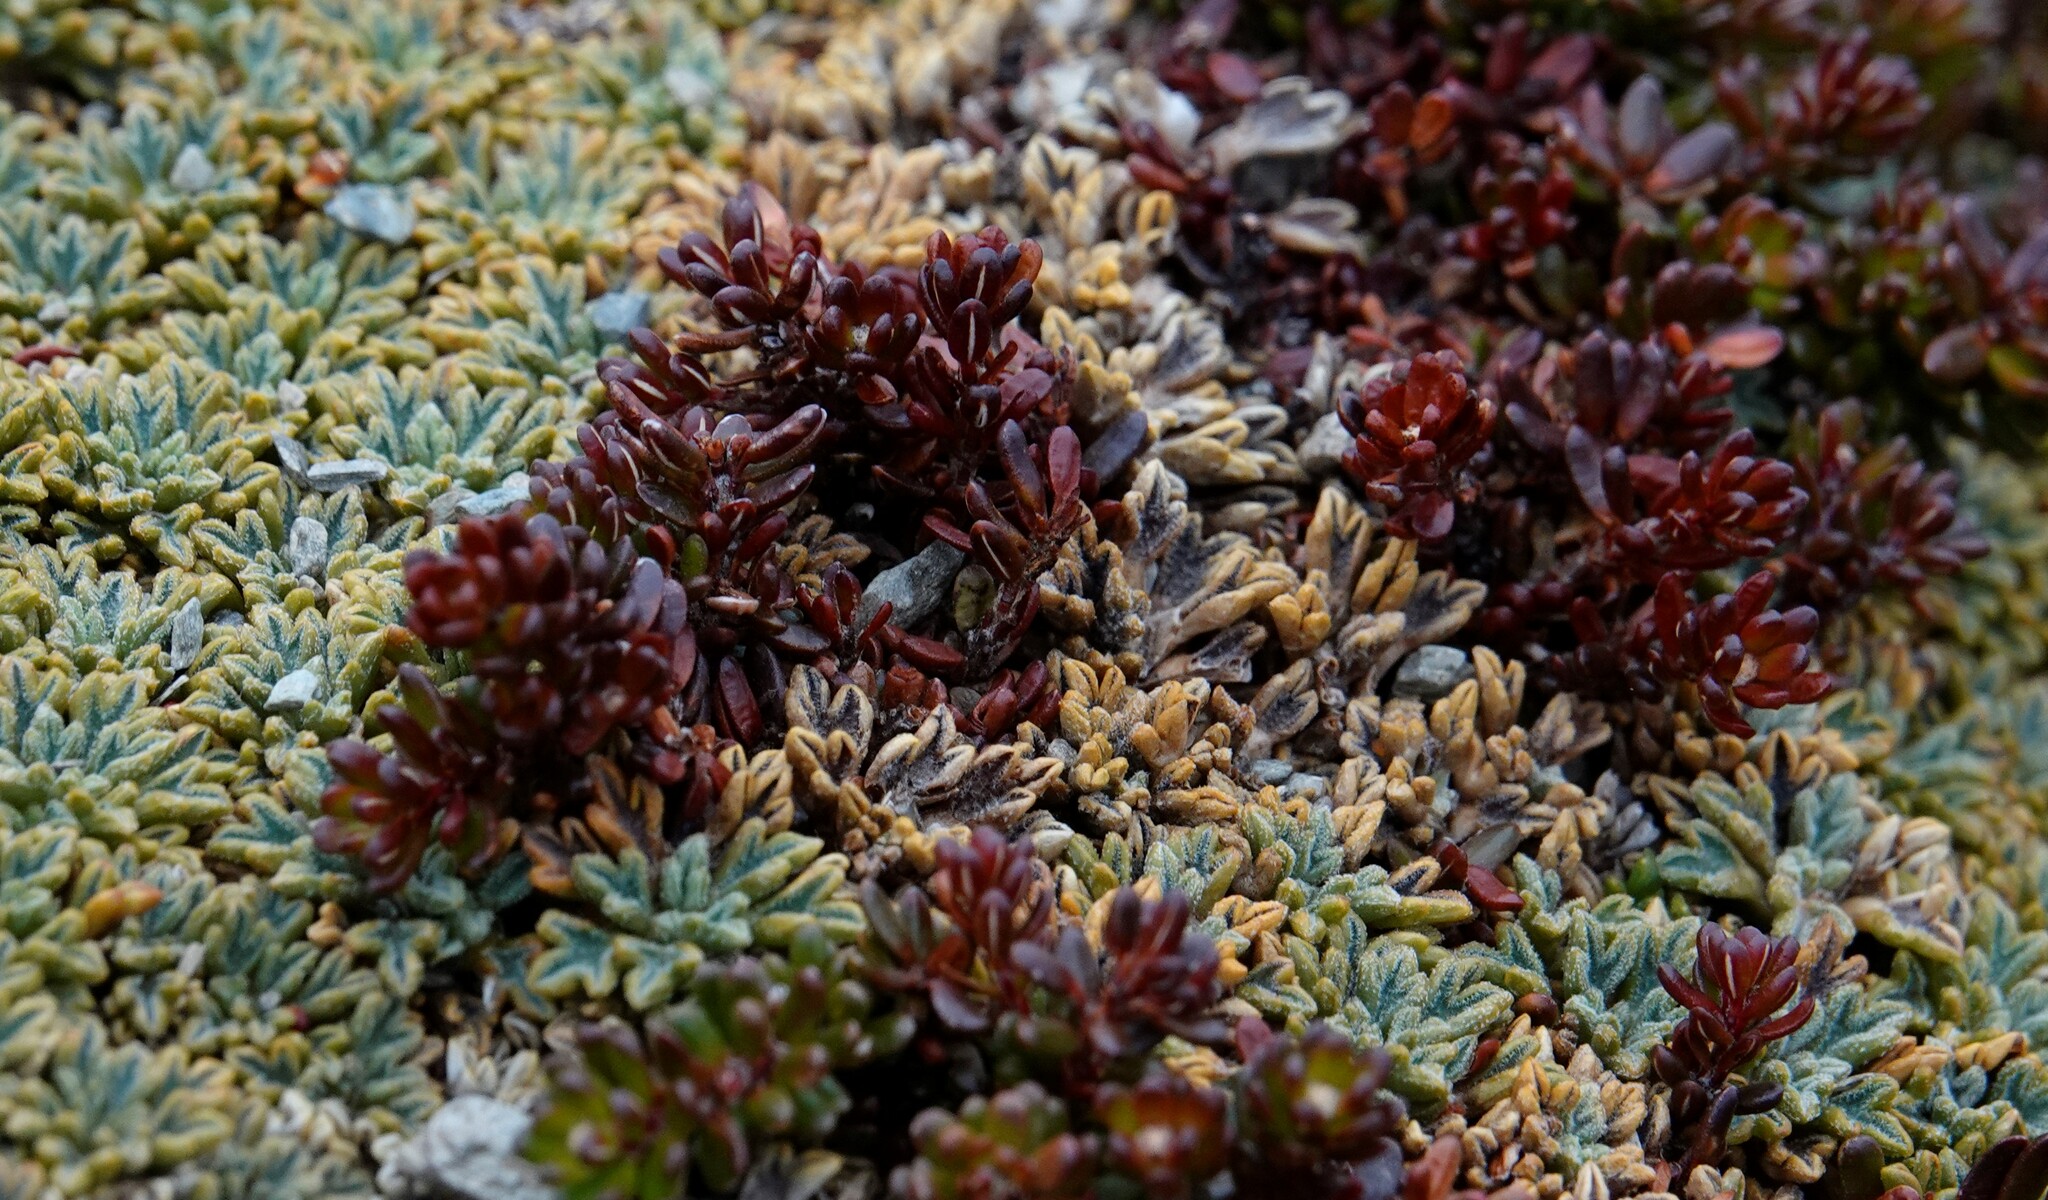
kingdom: Plantae
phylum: Tracheophyta
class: Magnoliopsida
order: Ericales
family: Ericaceae
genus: Empetrum
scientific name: Empetrum rubrum
